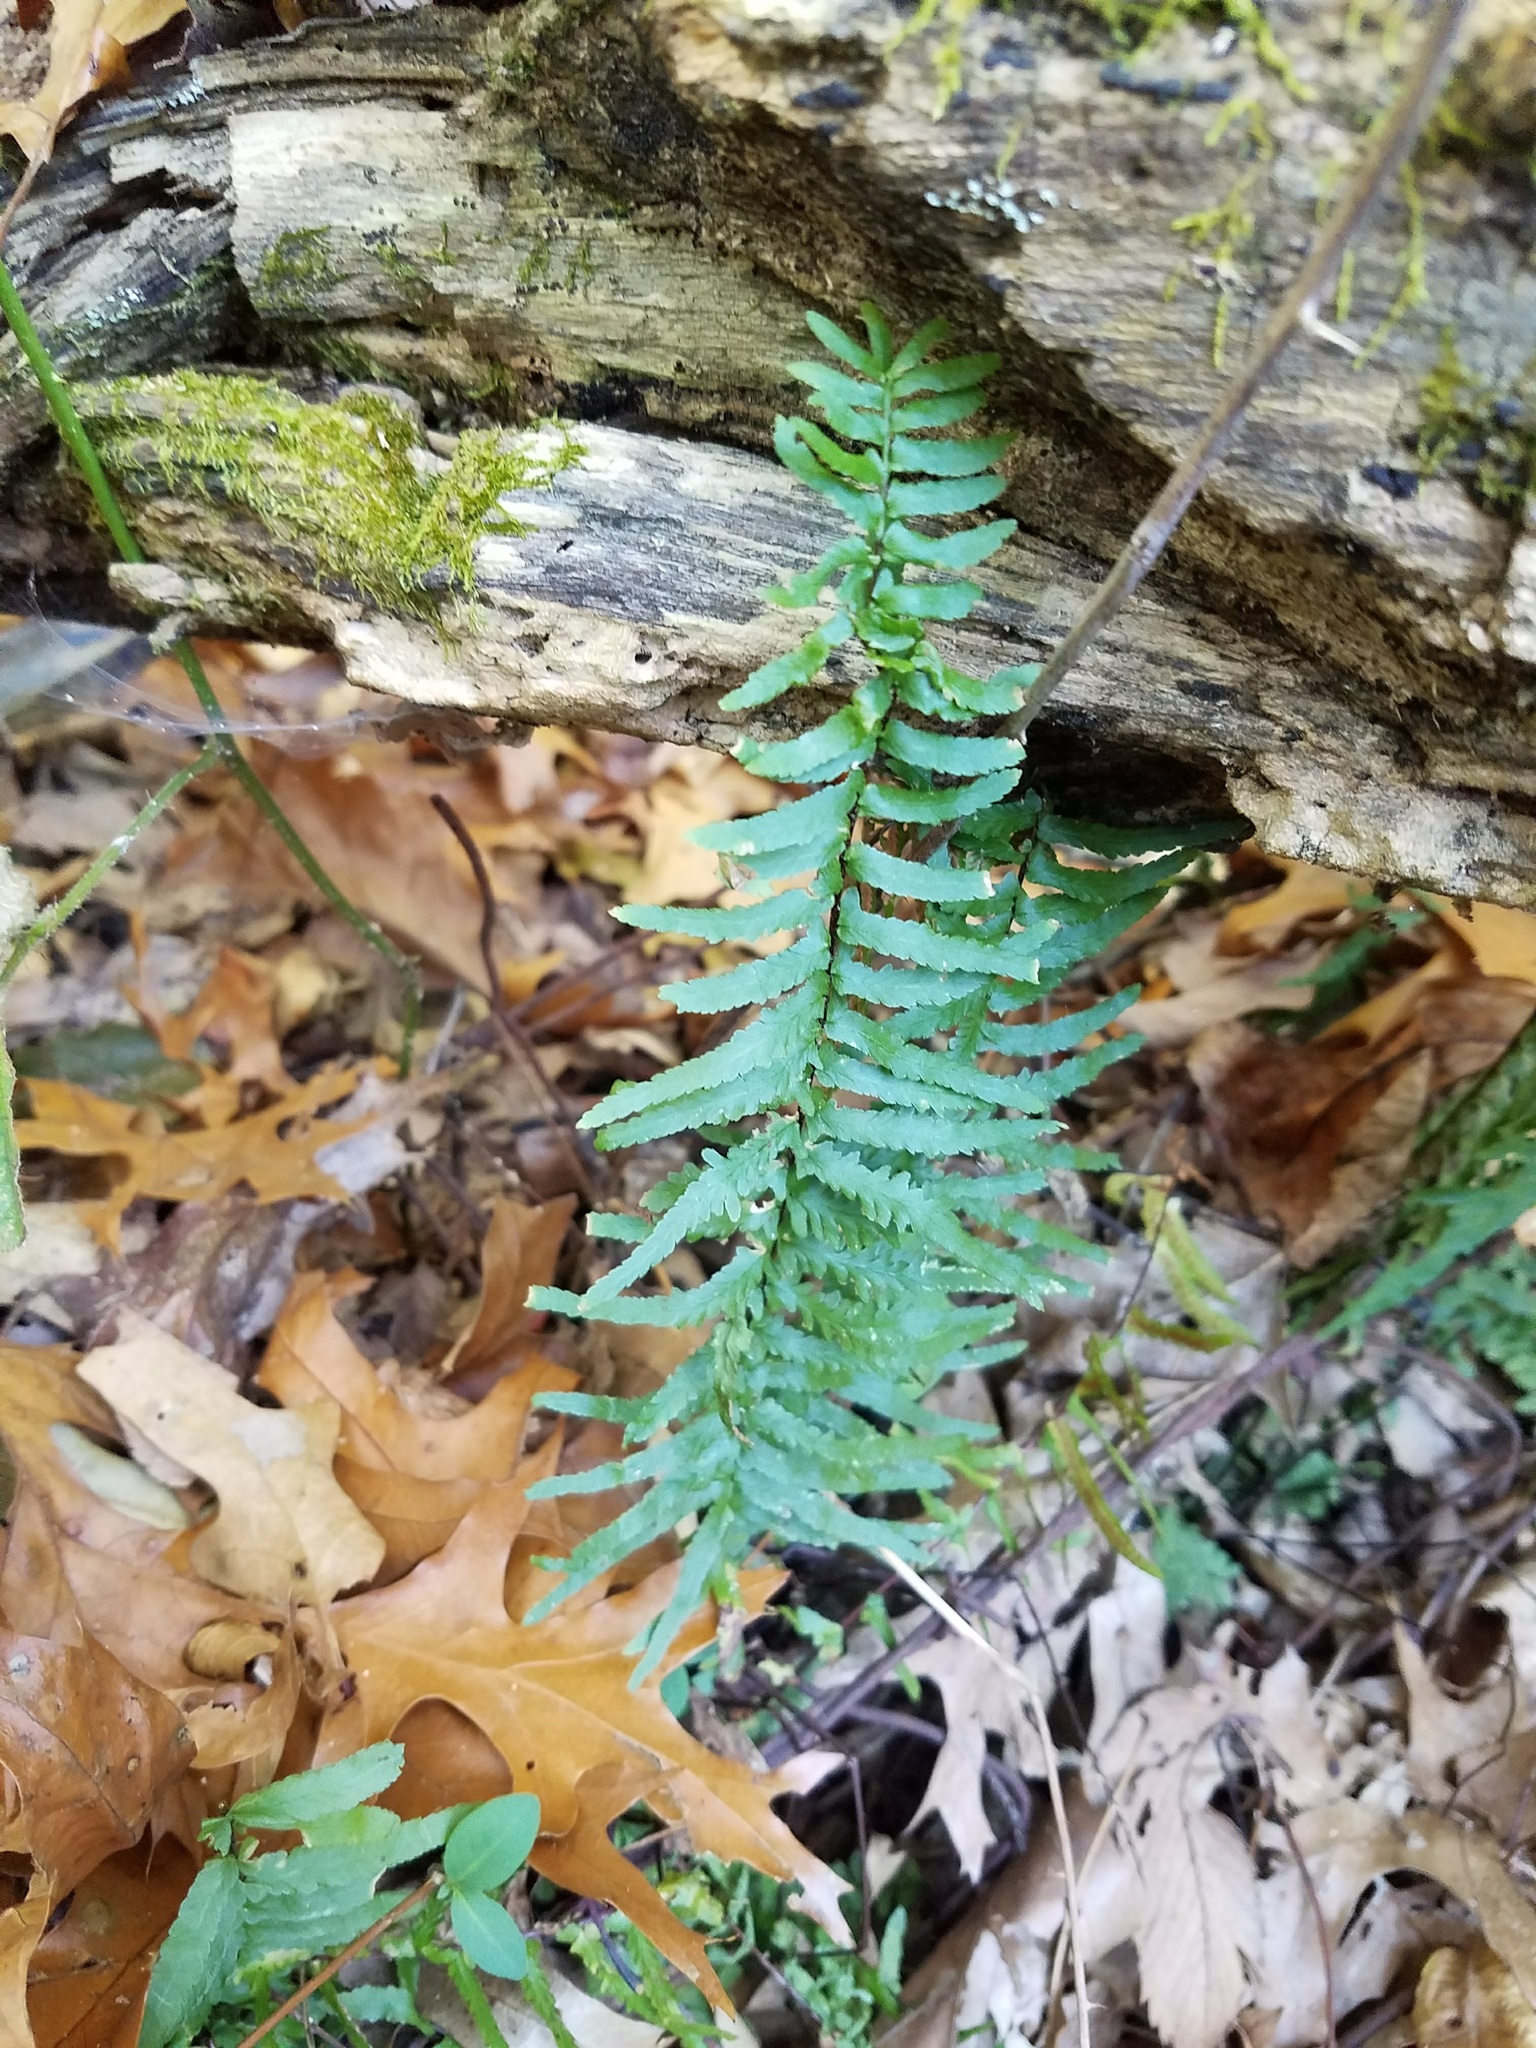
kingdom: Plantae
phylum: Tracheophyta
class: Polypodiopsida
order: Polypodiales
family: Aspleniaceae
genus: Asplenium
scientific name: Asplenium platyneuron
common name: Ebony spleenwort
